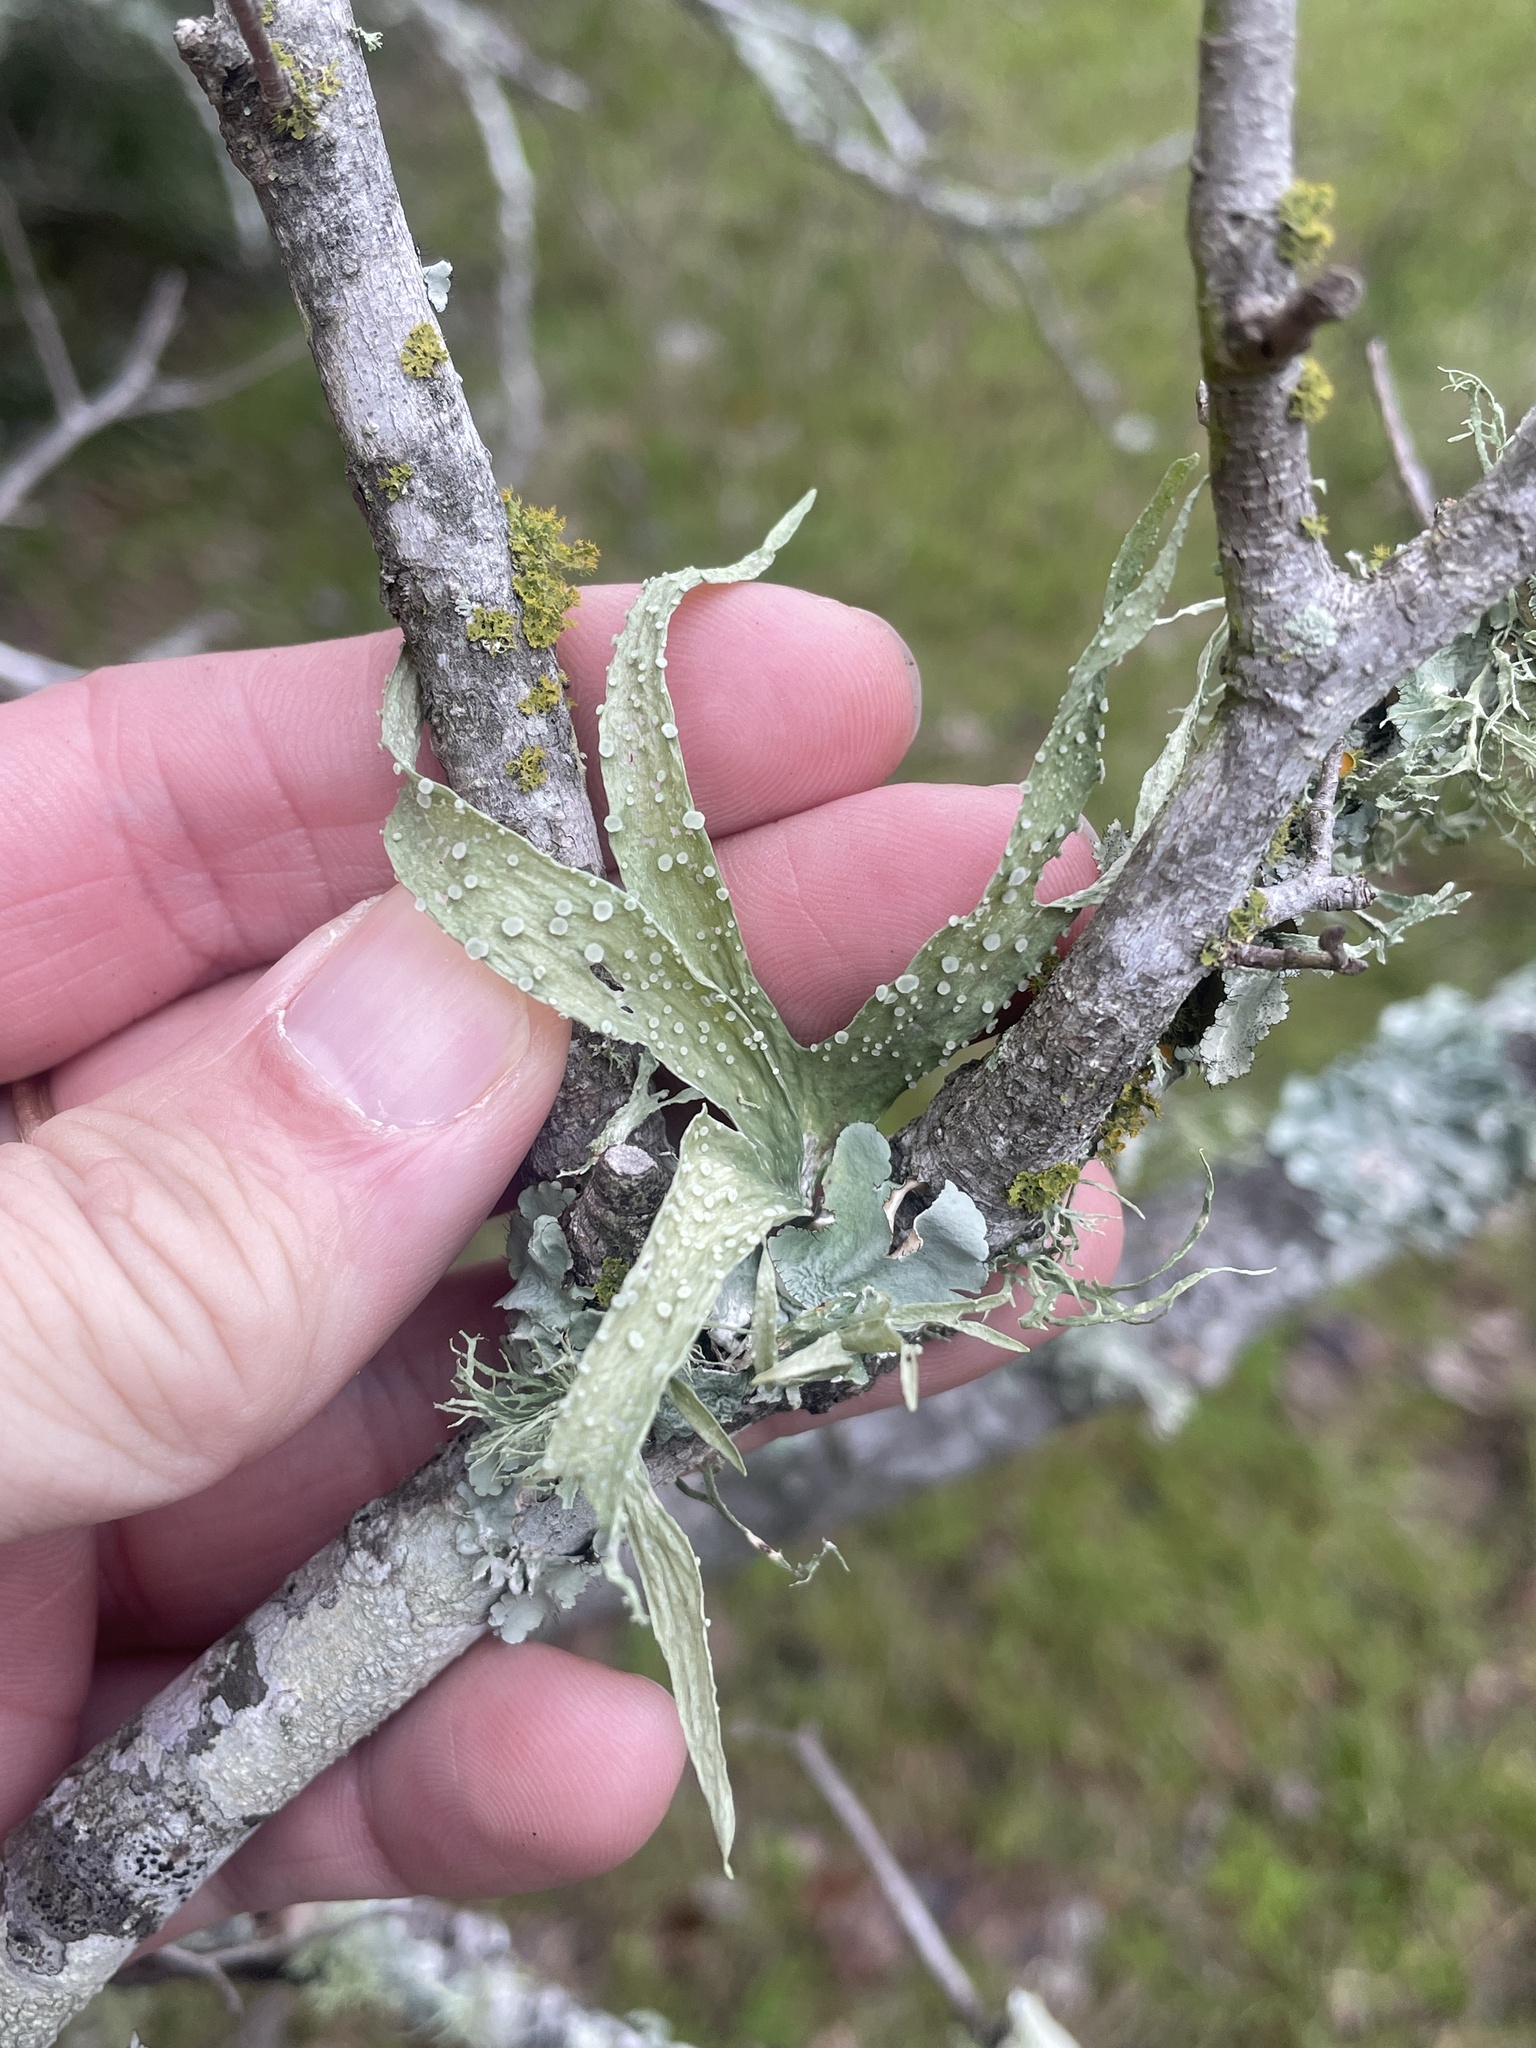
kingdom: Fungi
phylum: Ascomycota
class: Lecanoromycetes
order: Lecanorales
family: Ramalinaceae
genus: Ramalina
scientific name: Ramalina celastri
